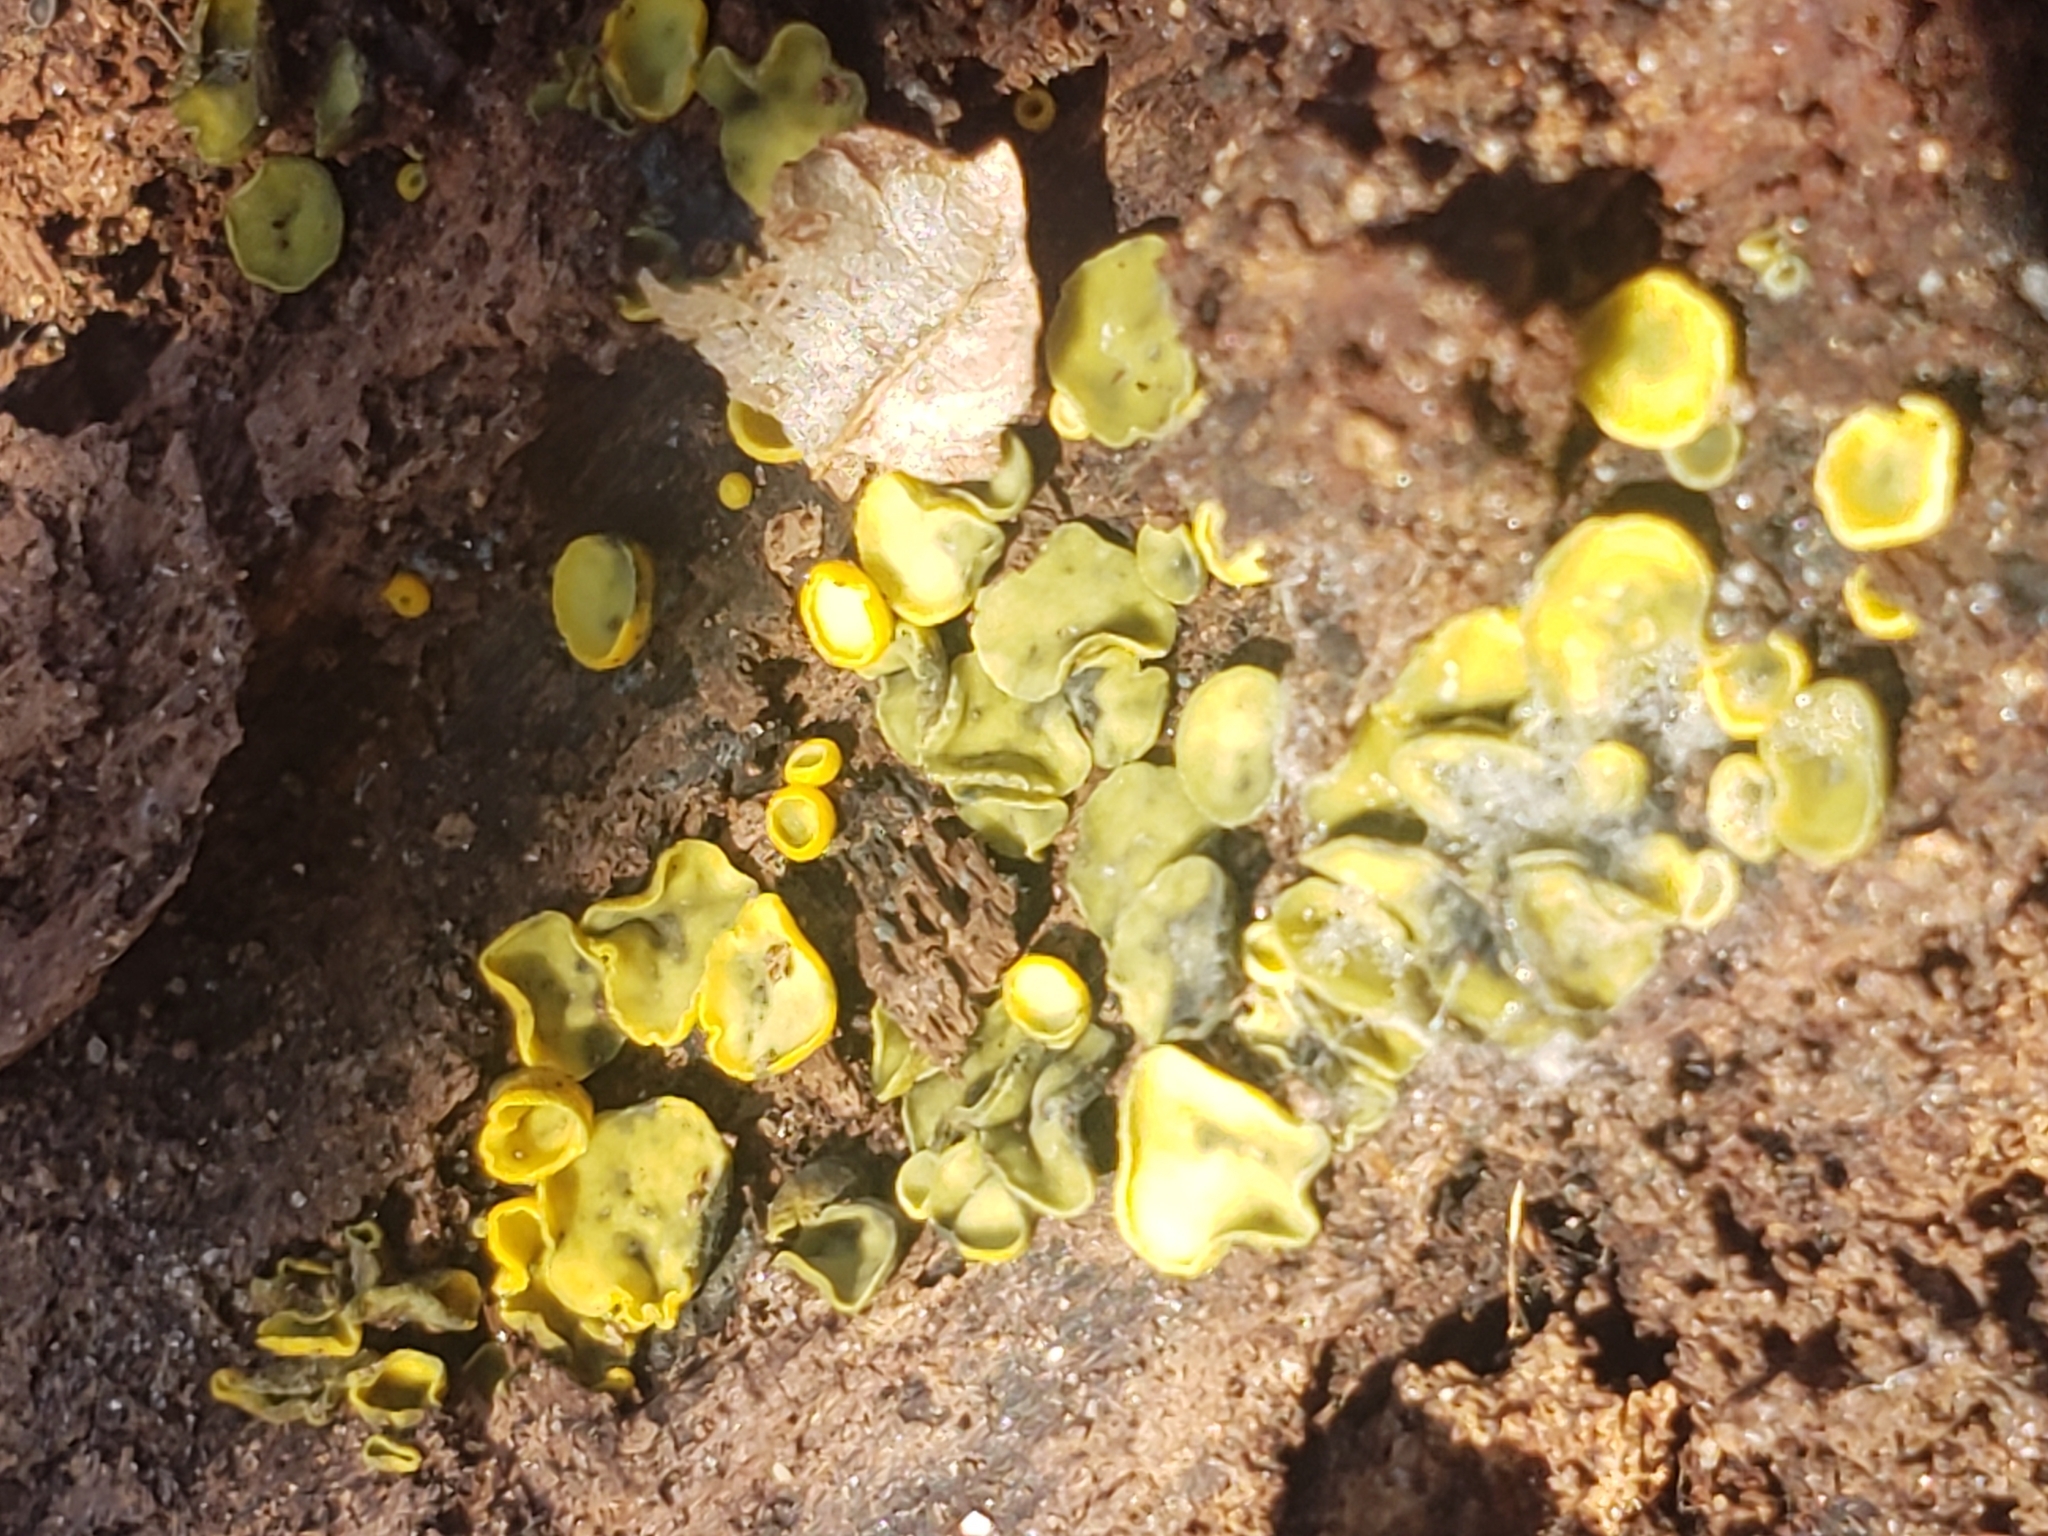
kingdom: Fungi
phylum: Ascomycota
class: Leotiomycetes
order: Helotiales
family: Chlorospleniaceae
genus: Chlorosplenium
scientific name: Chlorosplenium chlora
